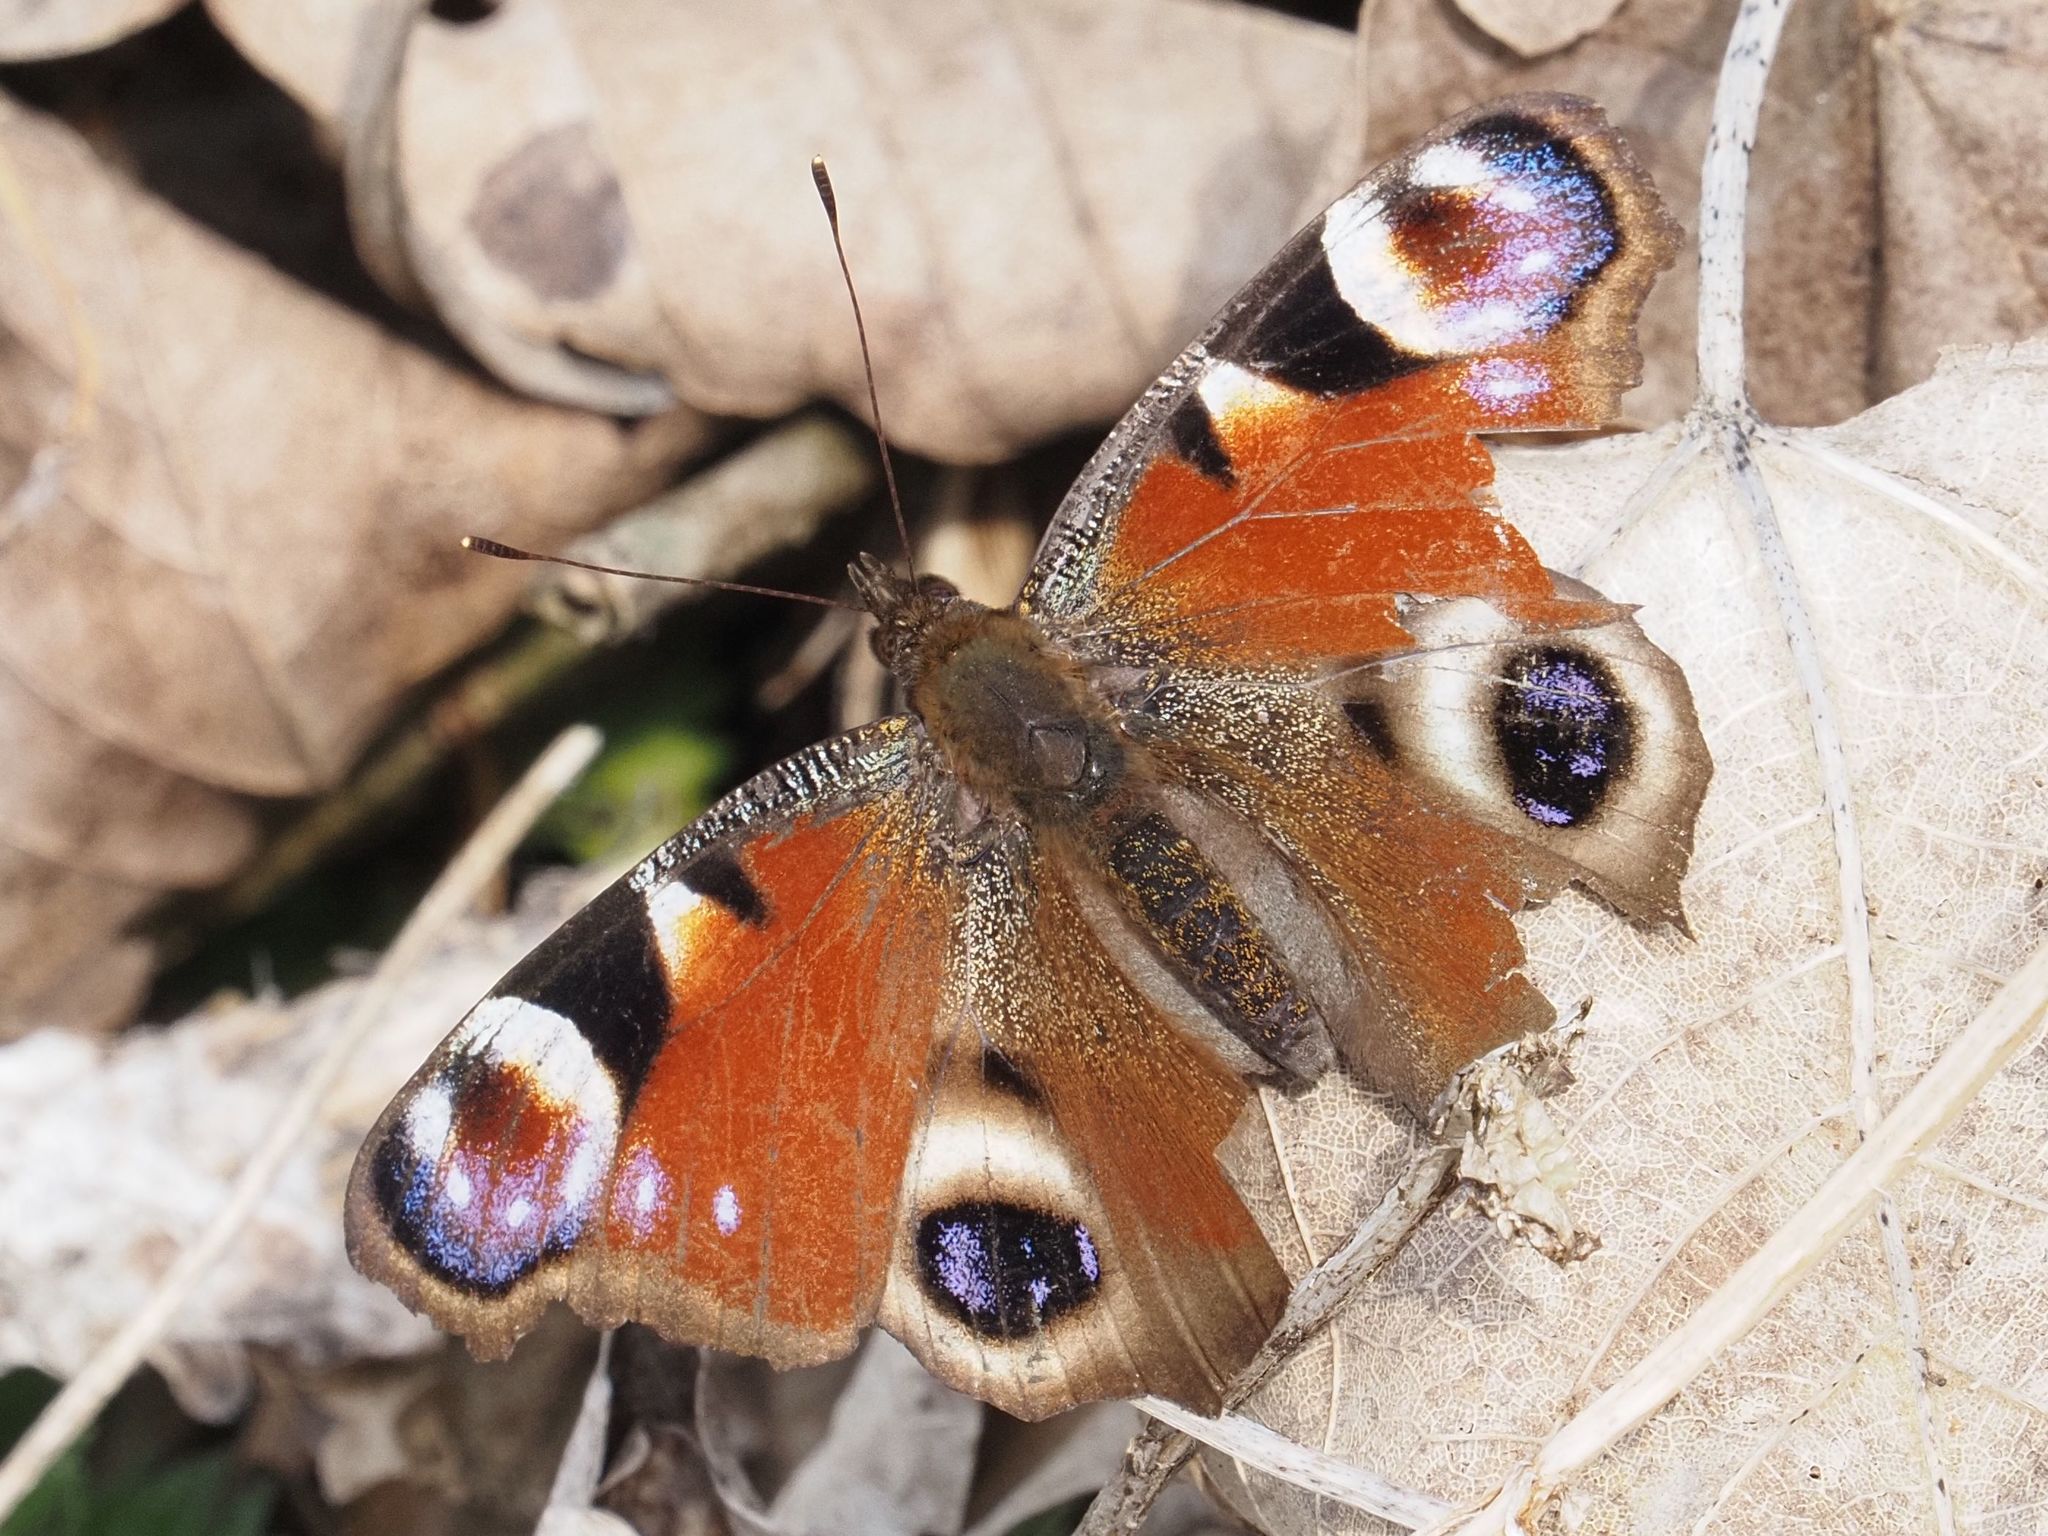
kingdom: Animalia
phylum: Arthropoda
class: Insecta
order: Lepidoptera
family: Nymphalidae
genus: Aglais
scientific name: Aglais io
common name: Peacock
